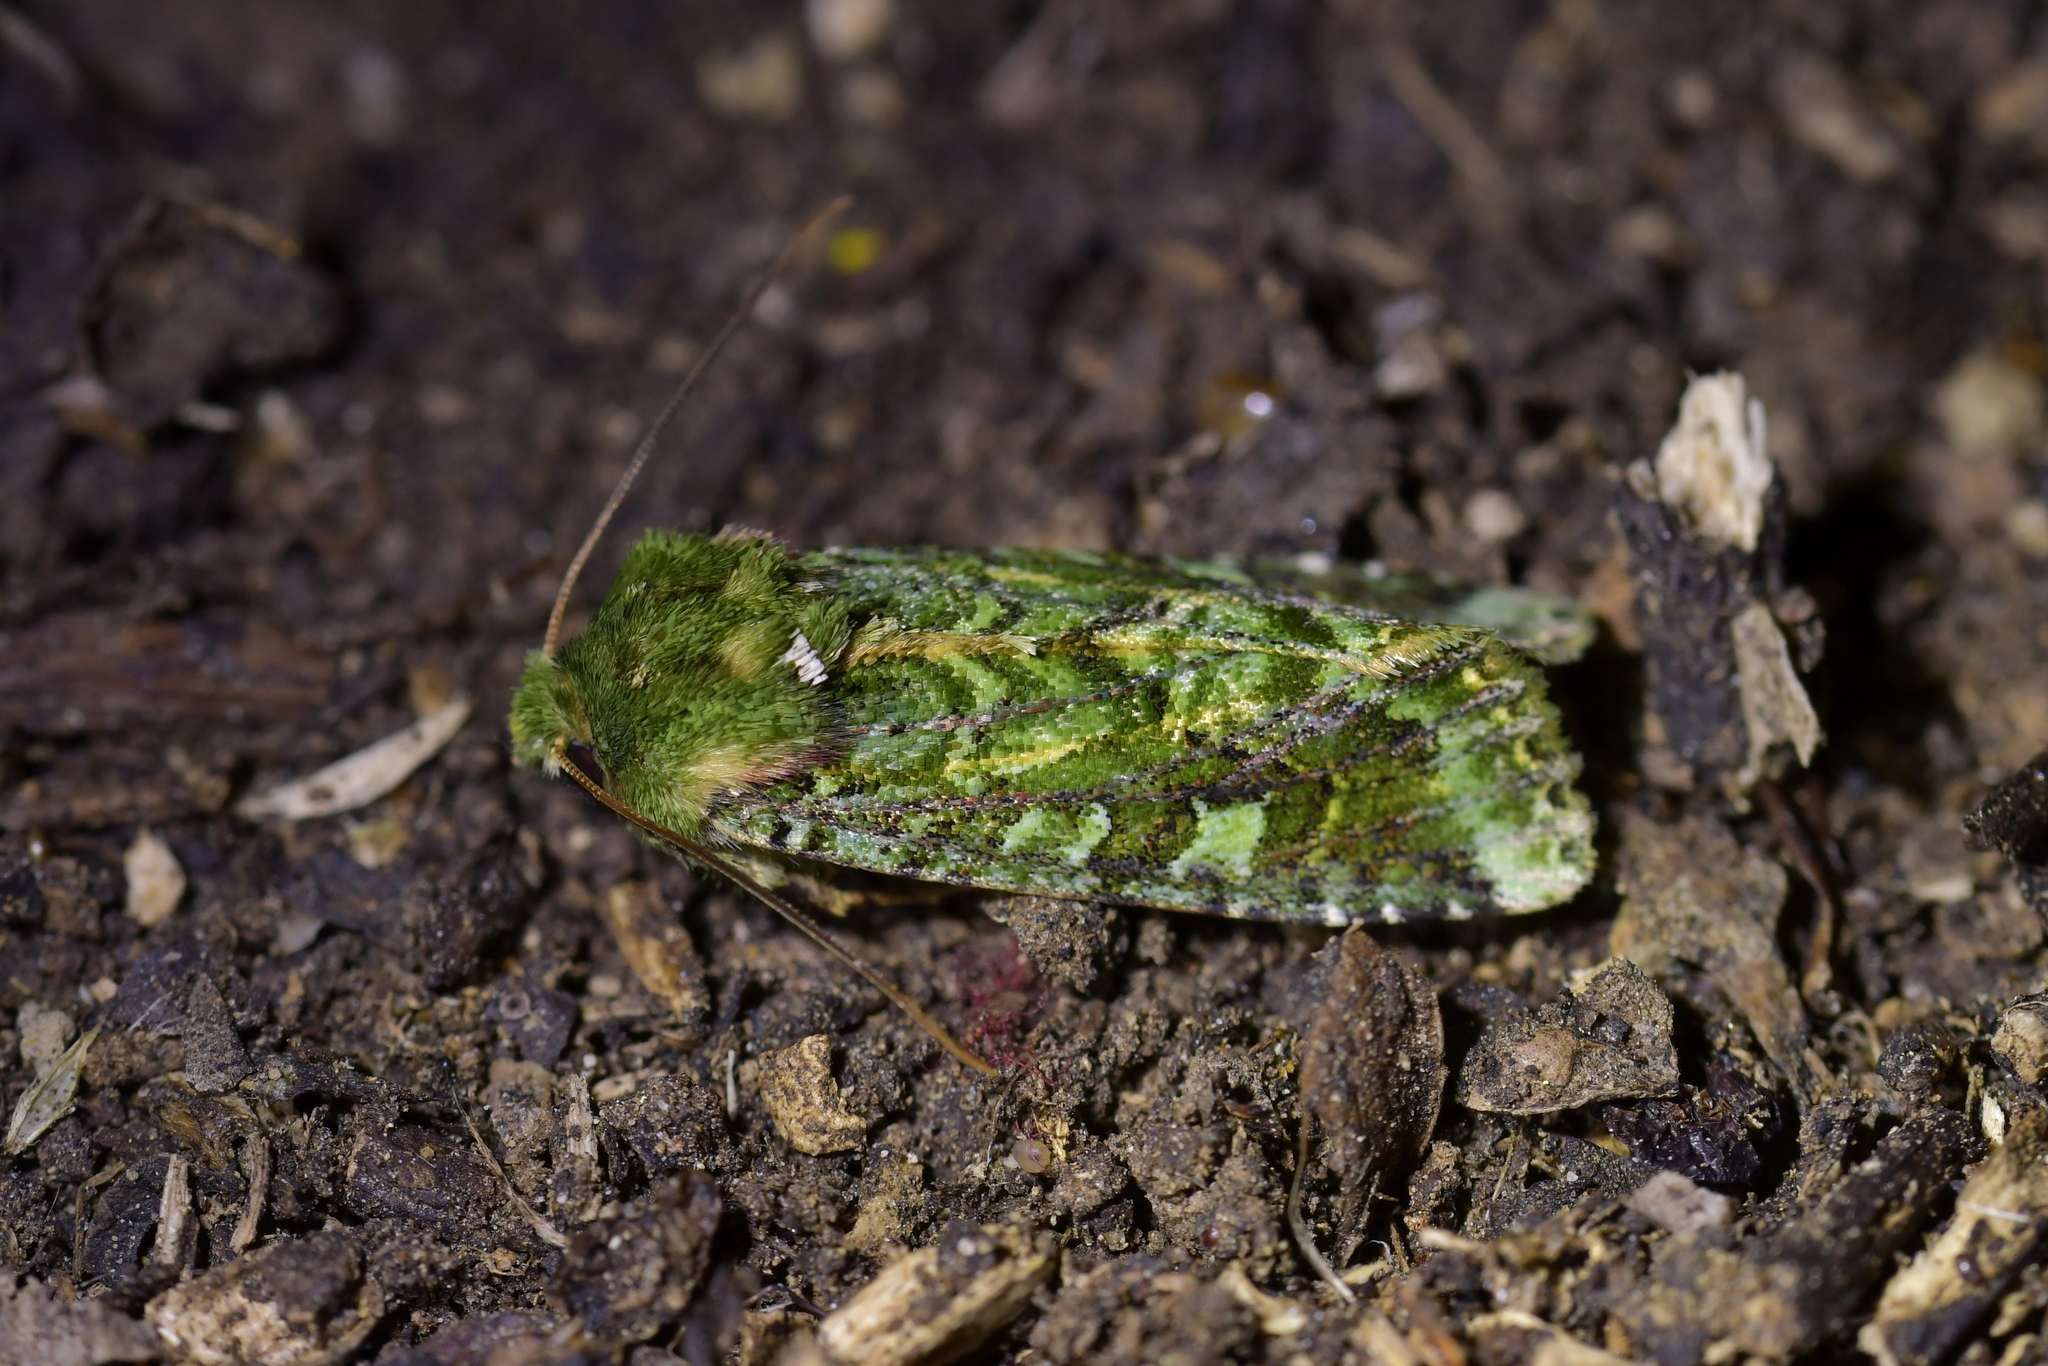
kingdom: Animalia
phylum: Arthropoda
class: Insecta
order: Lepidoptera
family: Noctuidae
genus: Feredayia
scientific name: Feredayia grammosa
